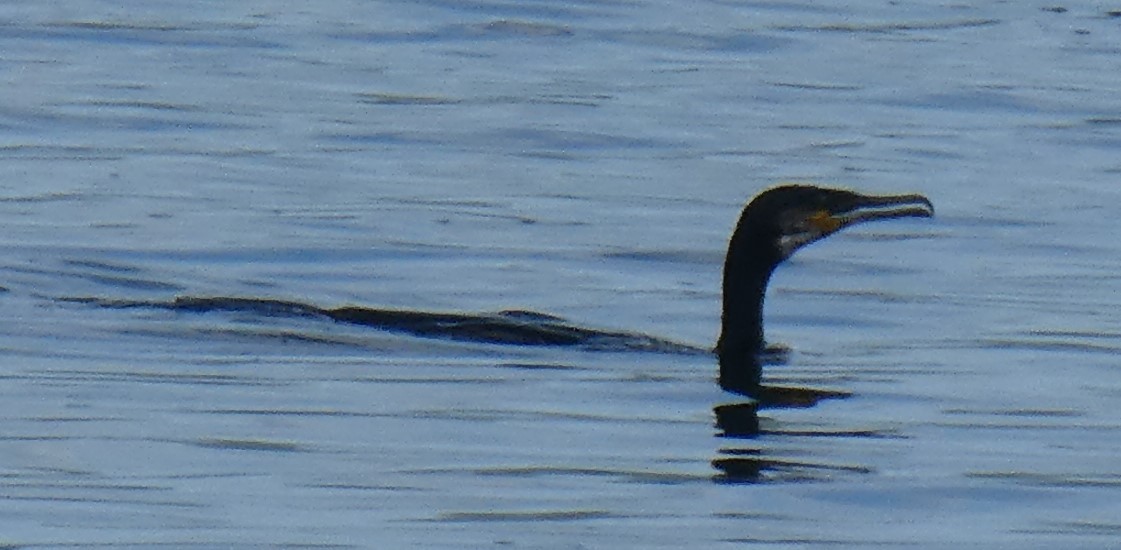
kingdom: Animalia
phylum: Chordata
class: Aves
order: Suliformes
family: Phalacrocoracidae
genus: Phalacrocorax
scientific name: Phalacrocorax carbo
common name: Great cormorant
